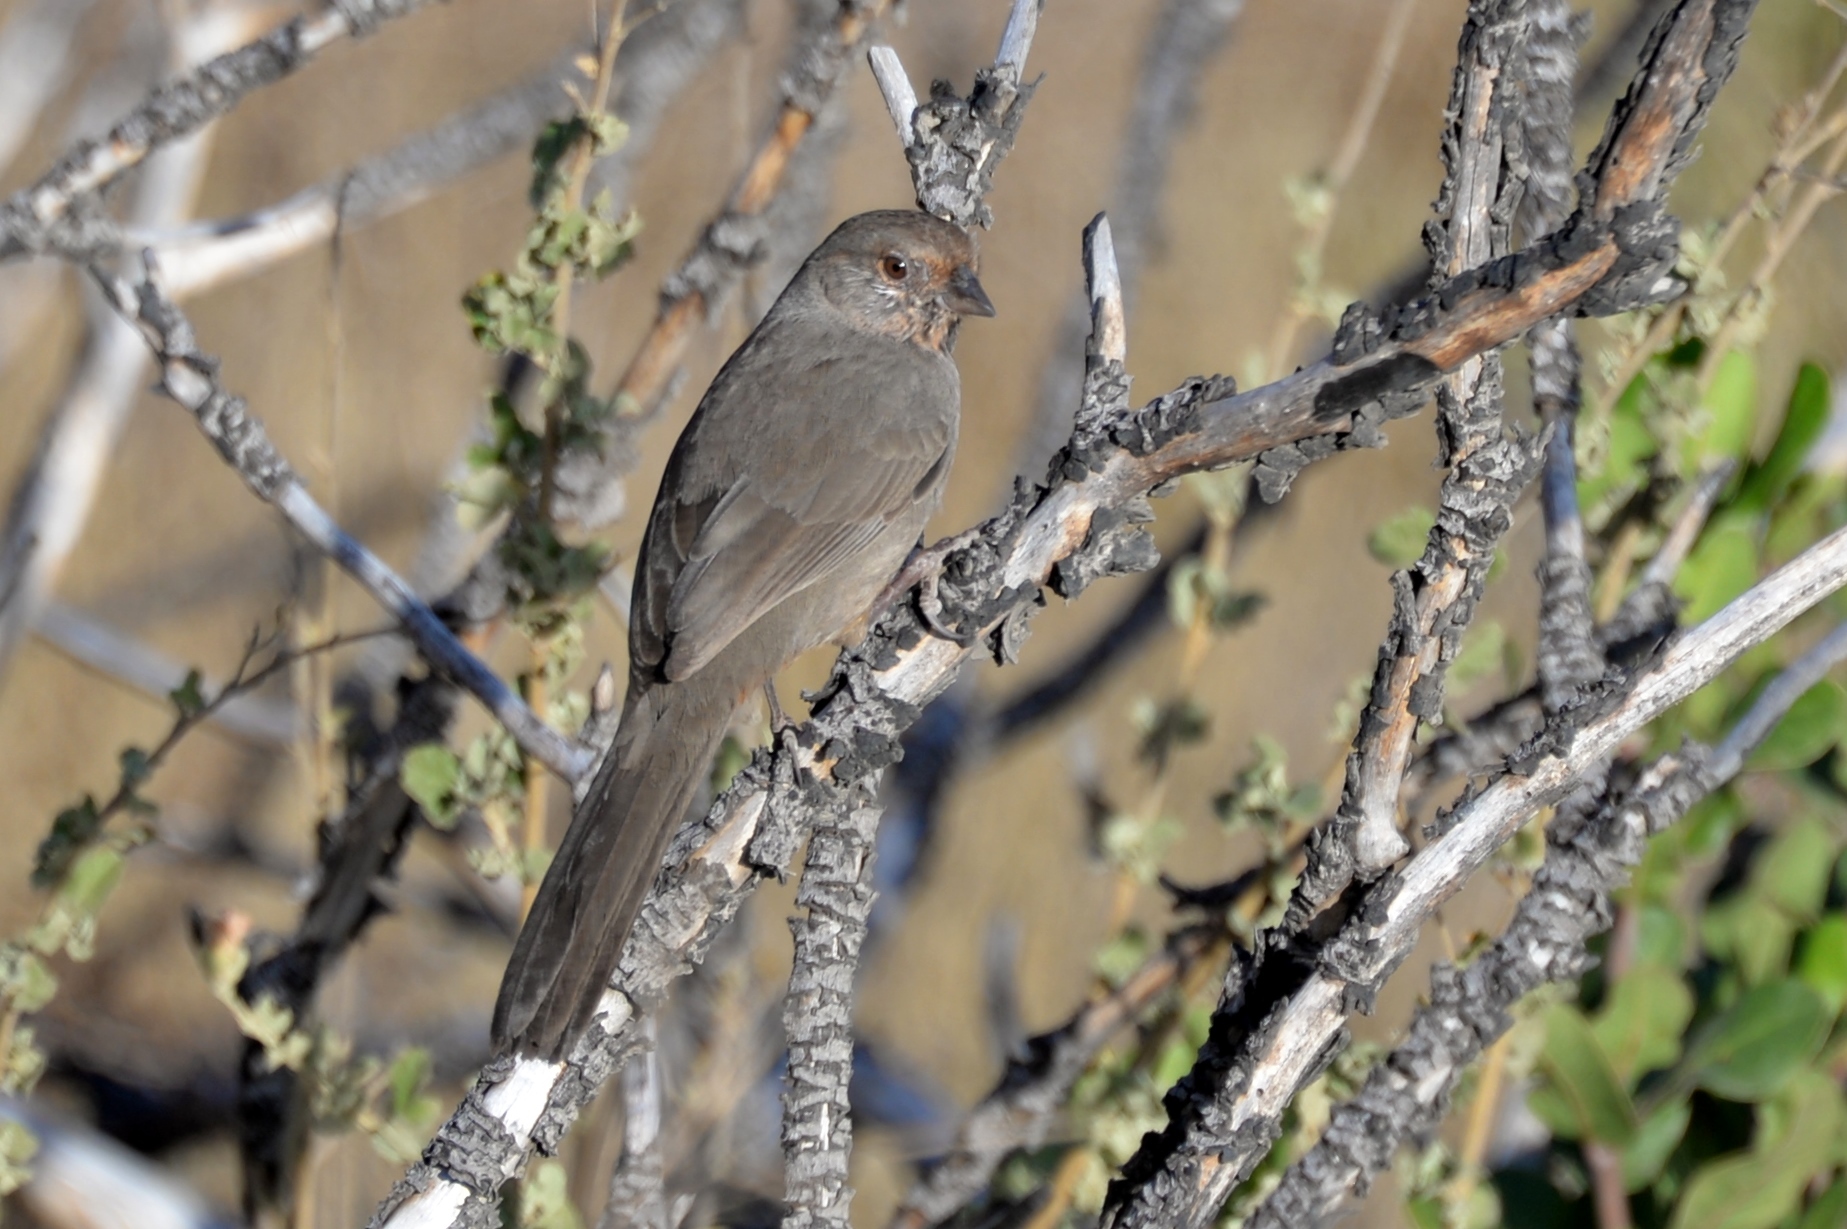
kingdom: Animalia
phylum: Chordata
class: Aves
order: Passeriformes
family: Passerellidae
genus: Melozone
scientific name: Melozone crissalis
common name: California towhee
